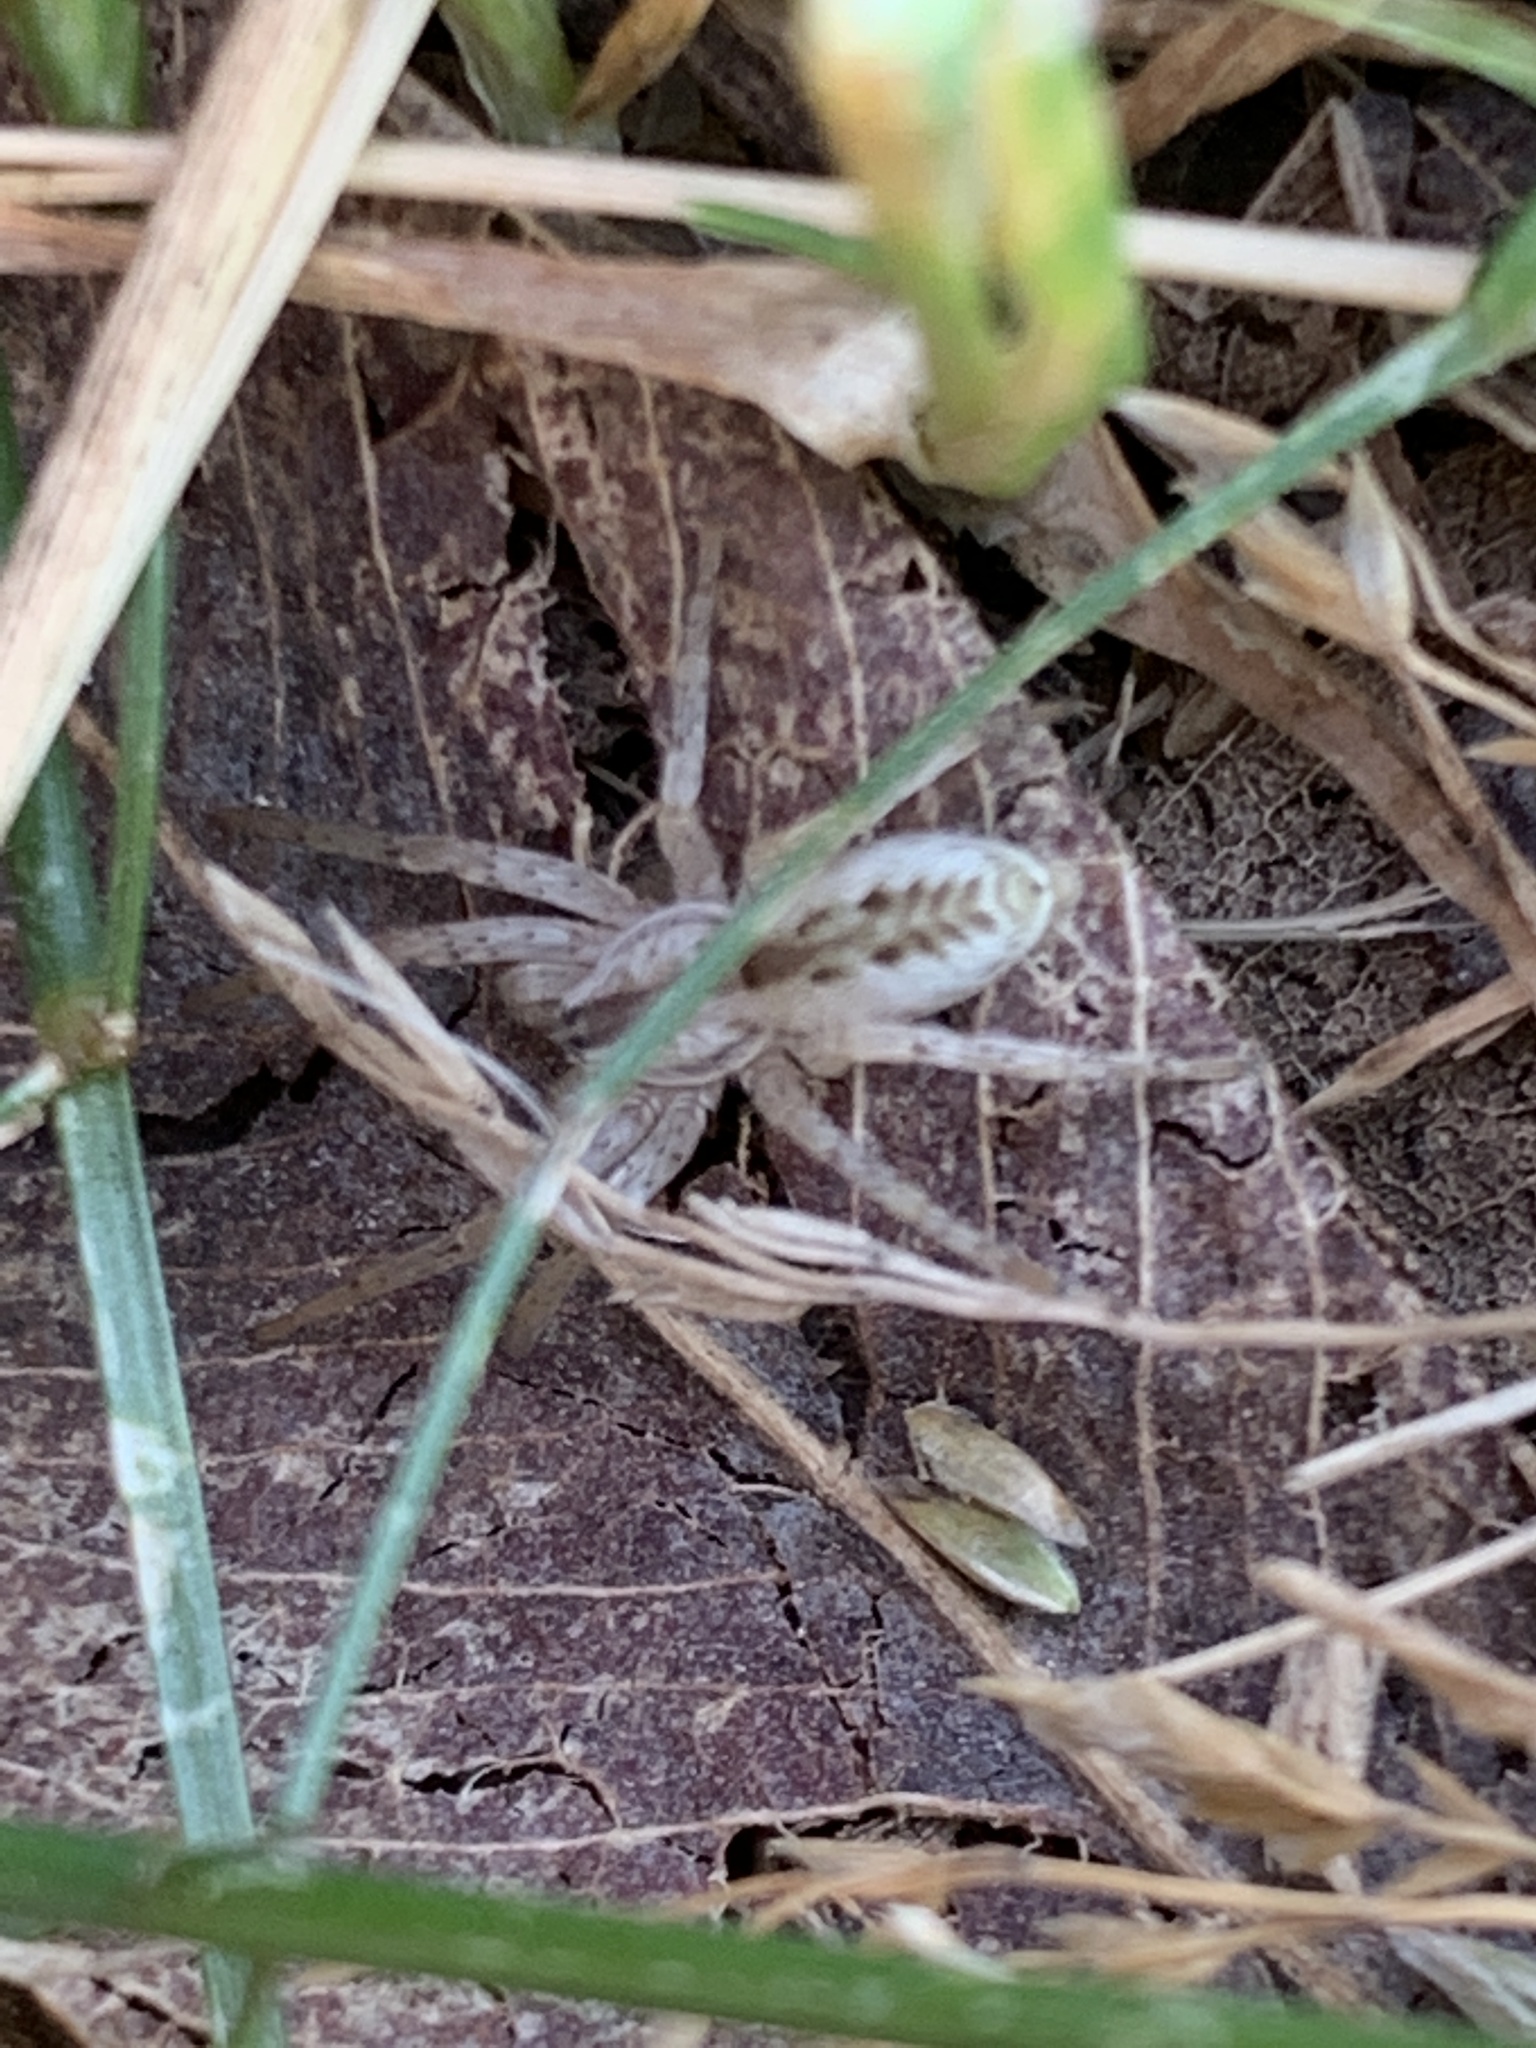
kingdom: Animalia
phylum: Arthropoda
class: Arachnida
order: Araneae
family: Anyphaenidae
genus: Arachosia
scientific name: Arachosia praesignis
